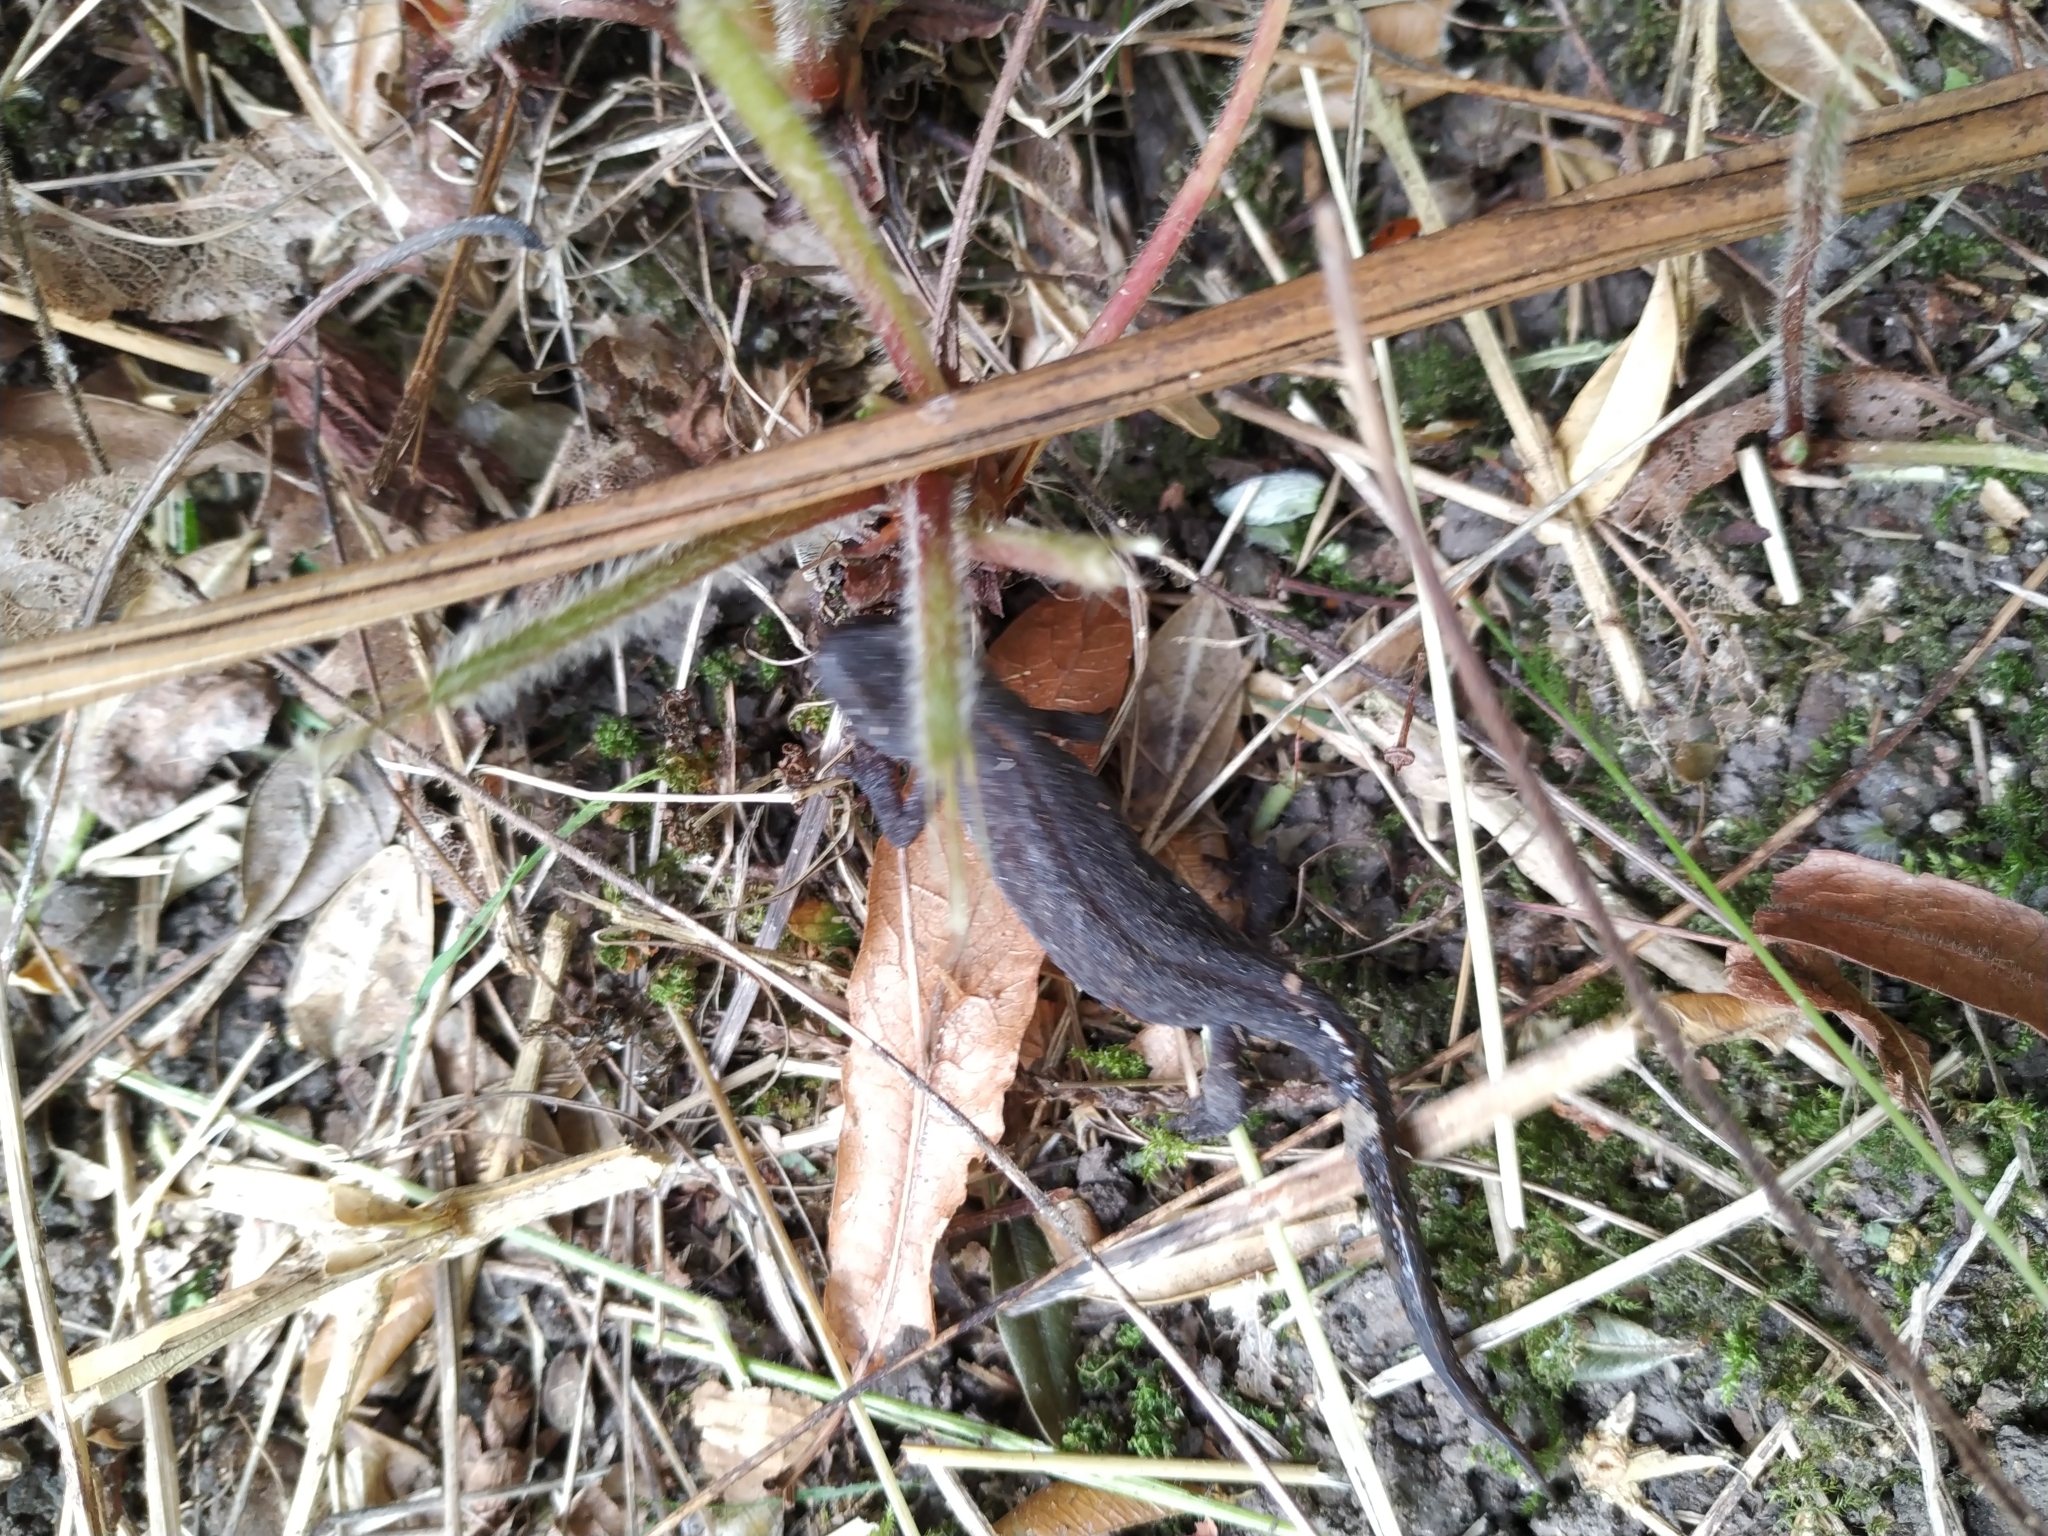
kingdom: Animalia
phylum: Chordata
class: Amphibia
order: Caudata
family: Salamandridae
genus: Ichthyosaura
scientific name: Ichthyosaura alpestris
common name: Alpine newt
